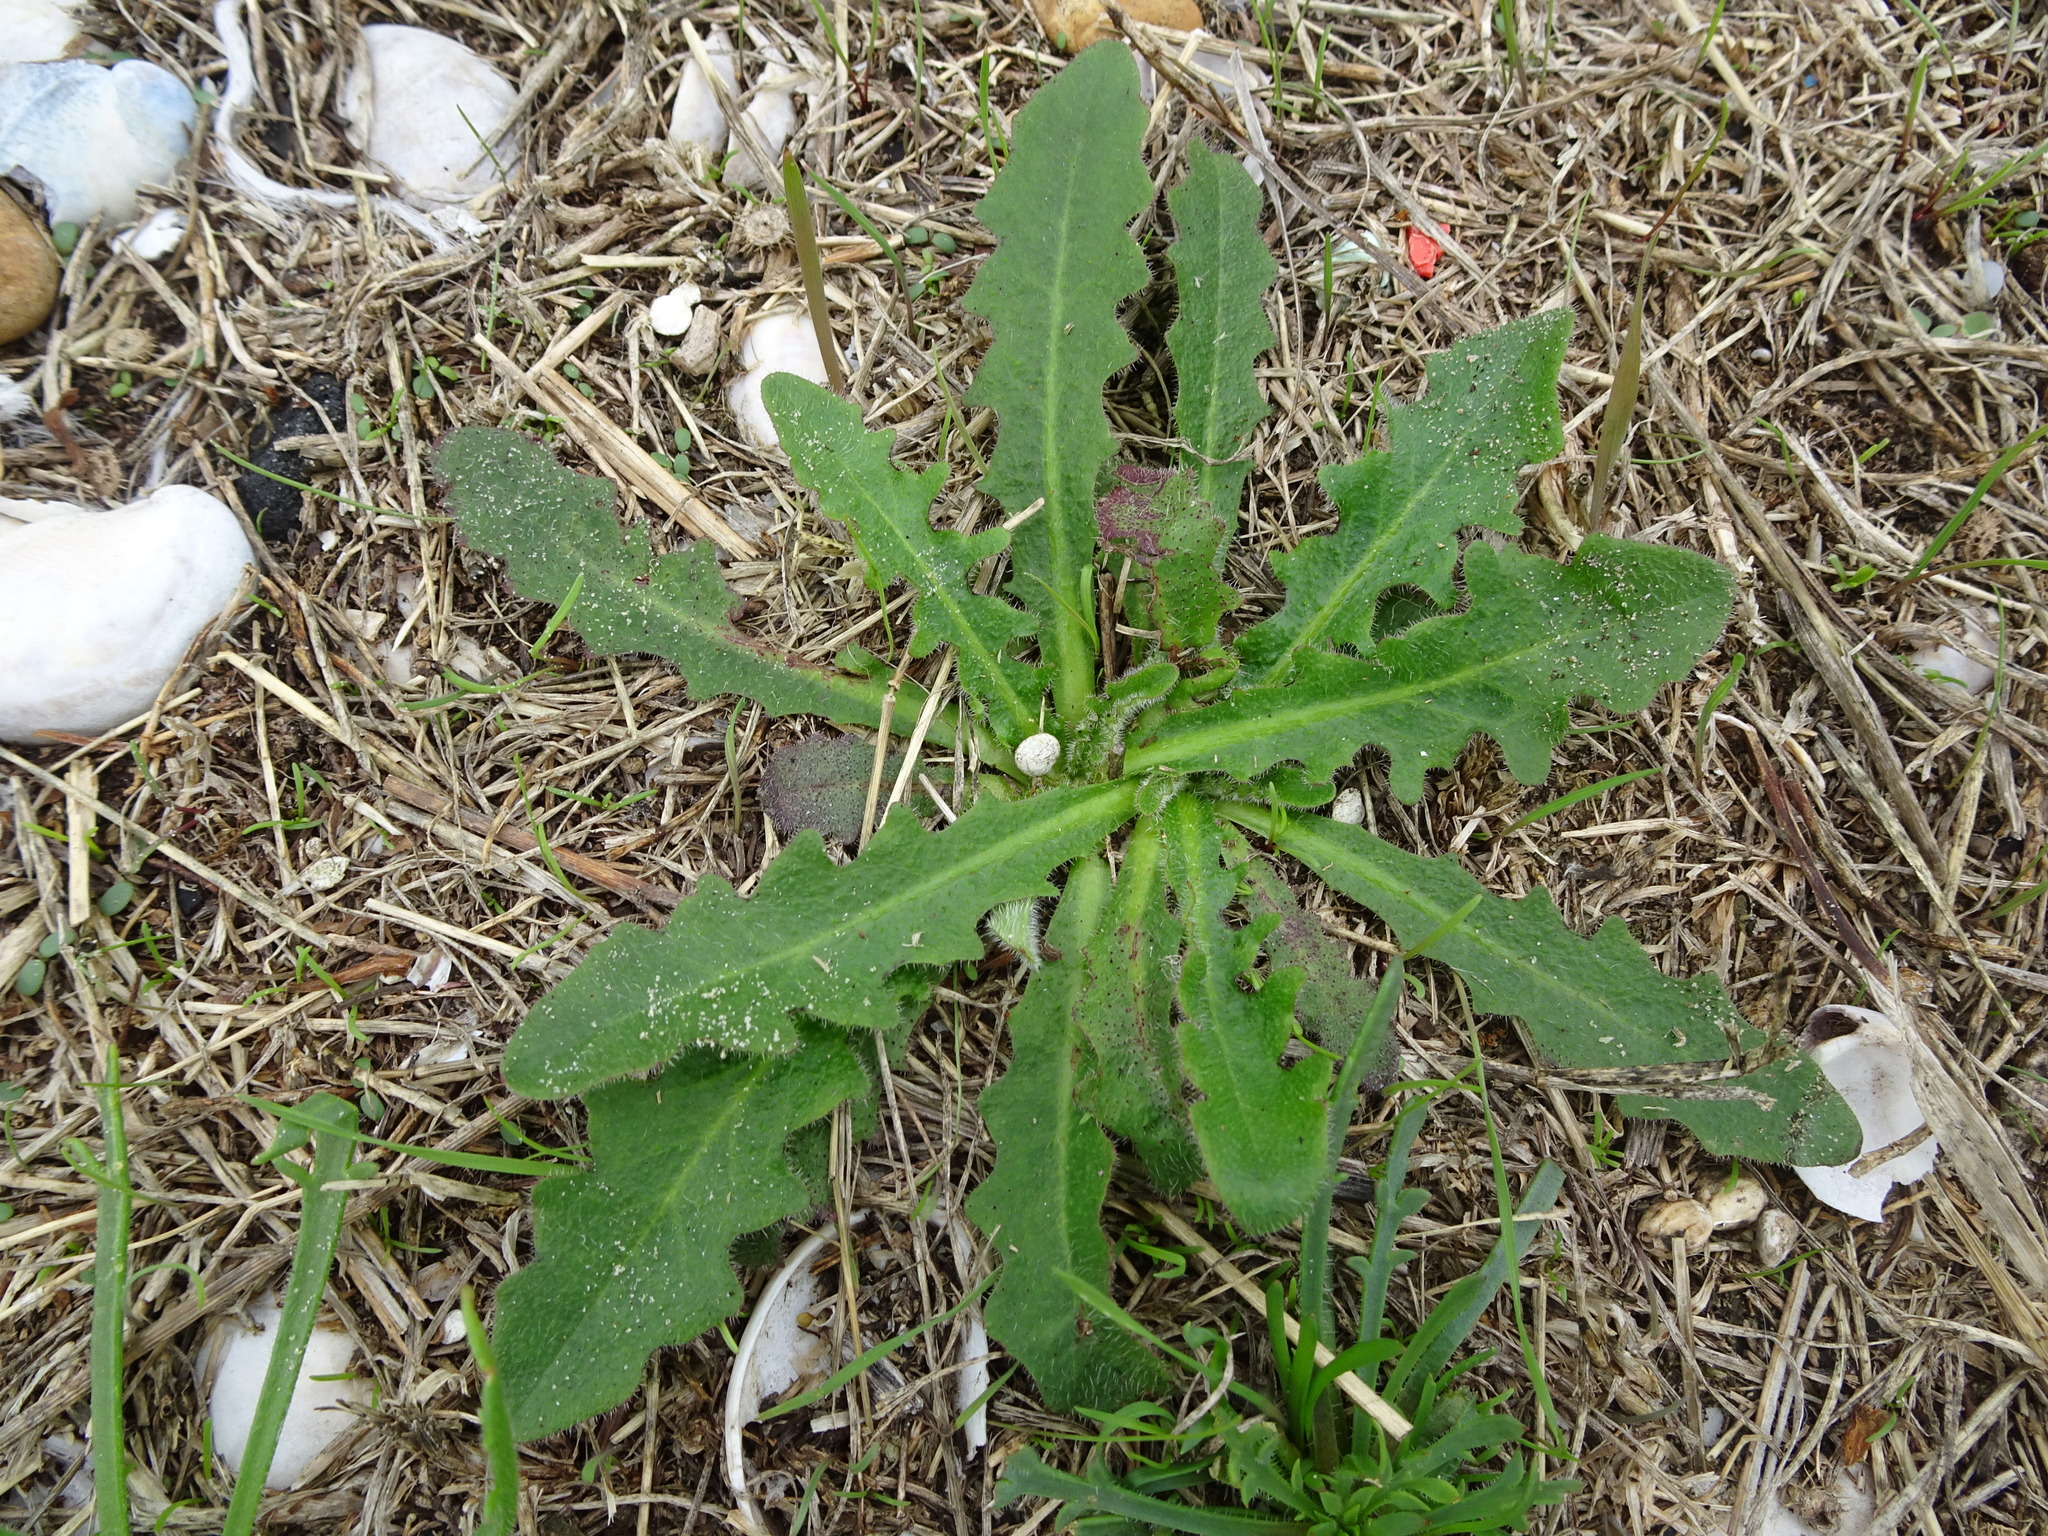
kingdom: Plantae
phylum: Tracheophyta
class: Magnoliopsida
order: Asterales
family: Asteraceae
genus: Hypochaeris
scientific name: Hypochaeris radicata
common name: Flatweed
